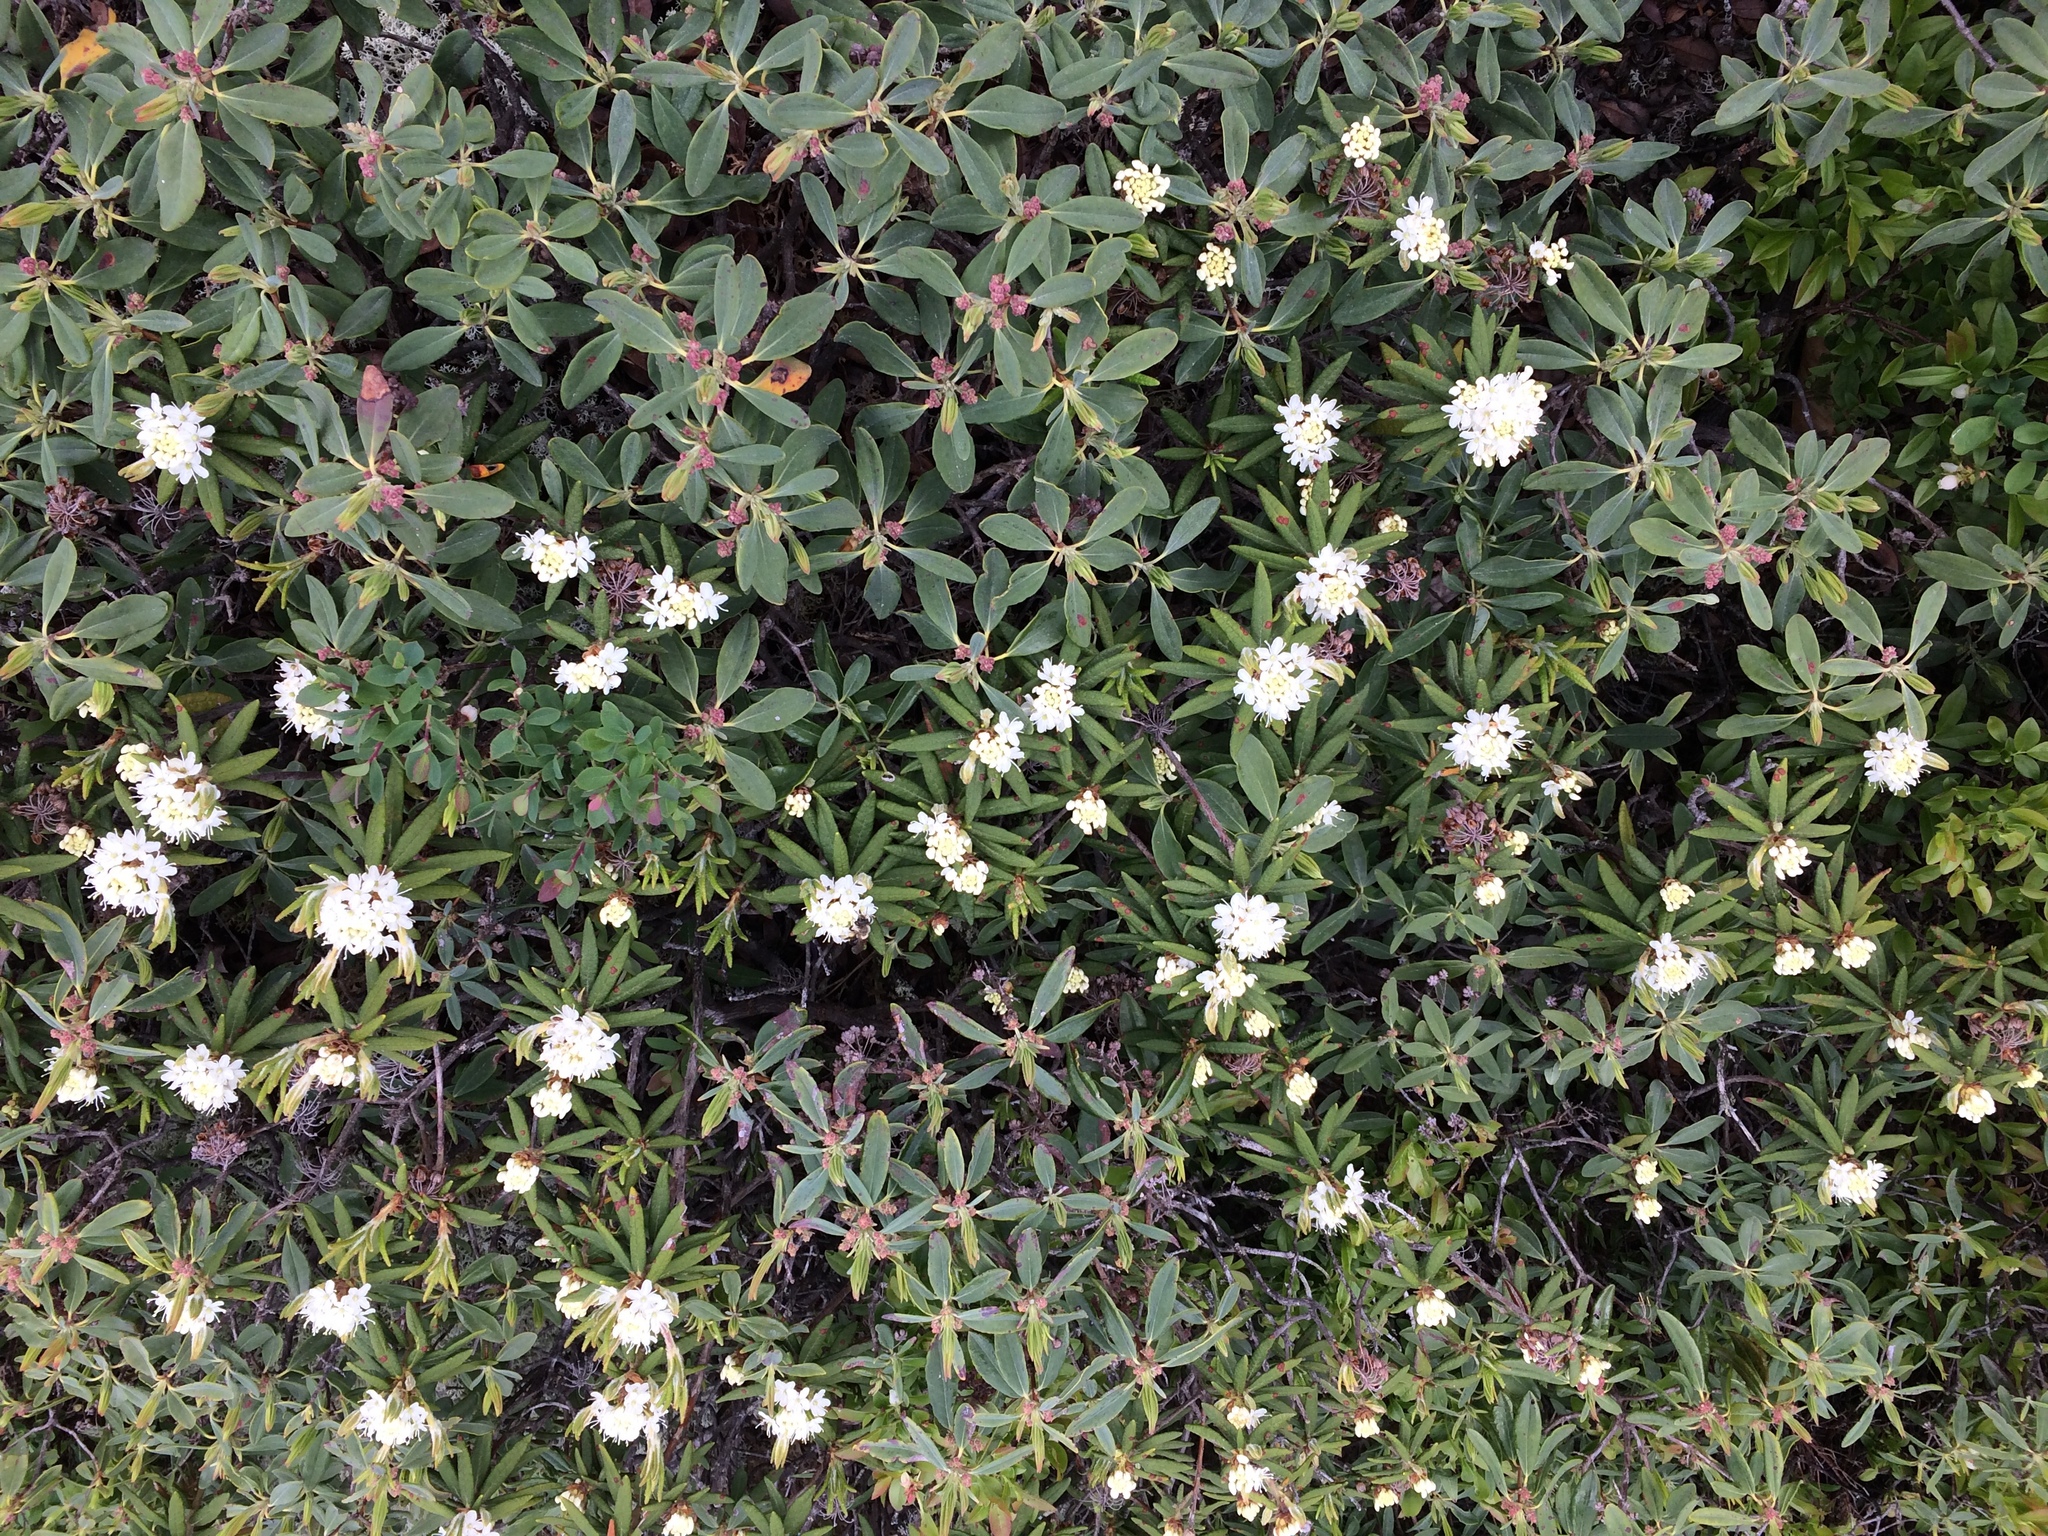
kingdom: Plantae
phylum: Tracheophyta
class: Magnoliopsida
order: Ericales
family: Ericaceae
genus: Rhododendron
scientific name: Rhododendron groenlandicum
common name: Bog labrador tea
